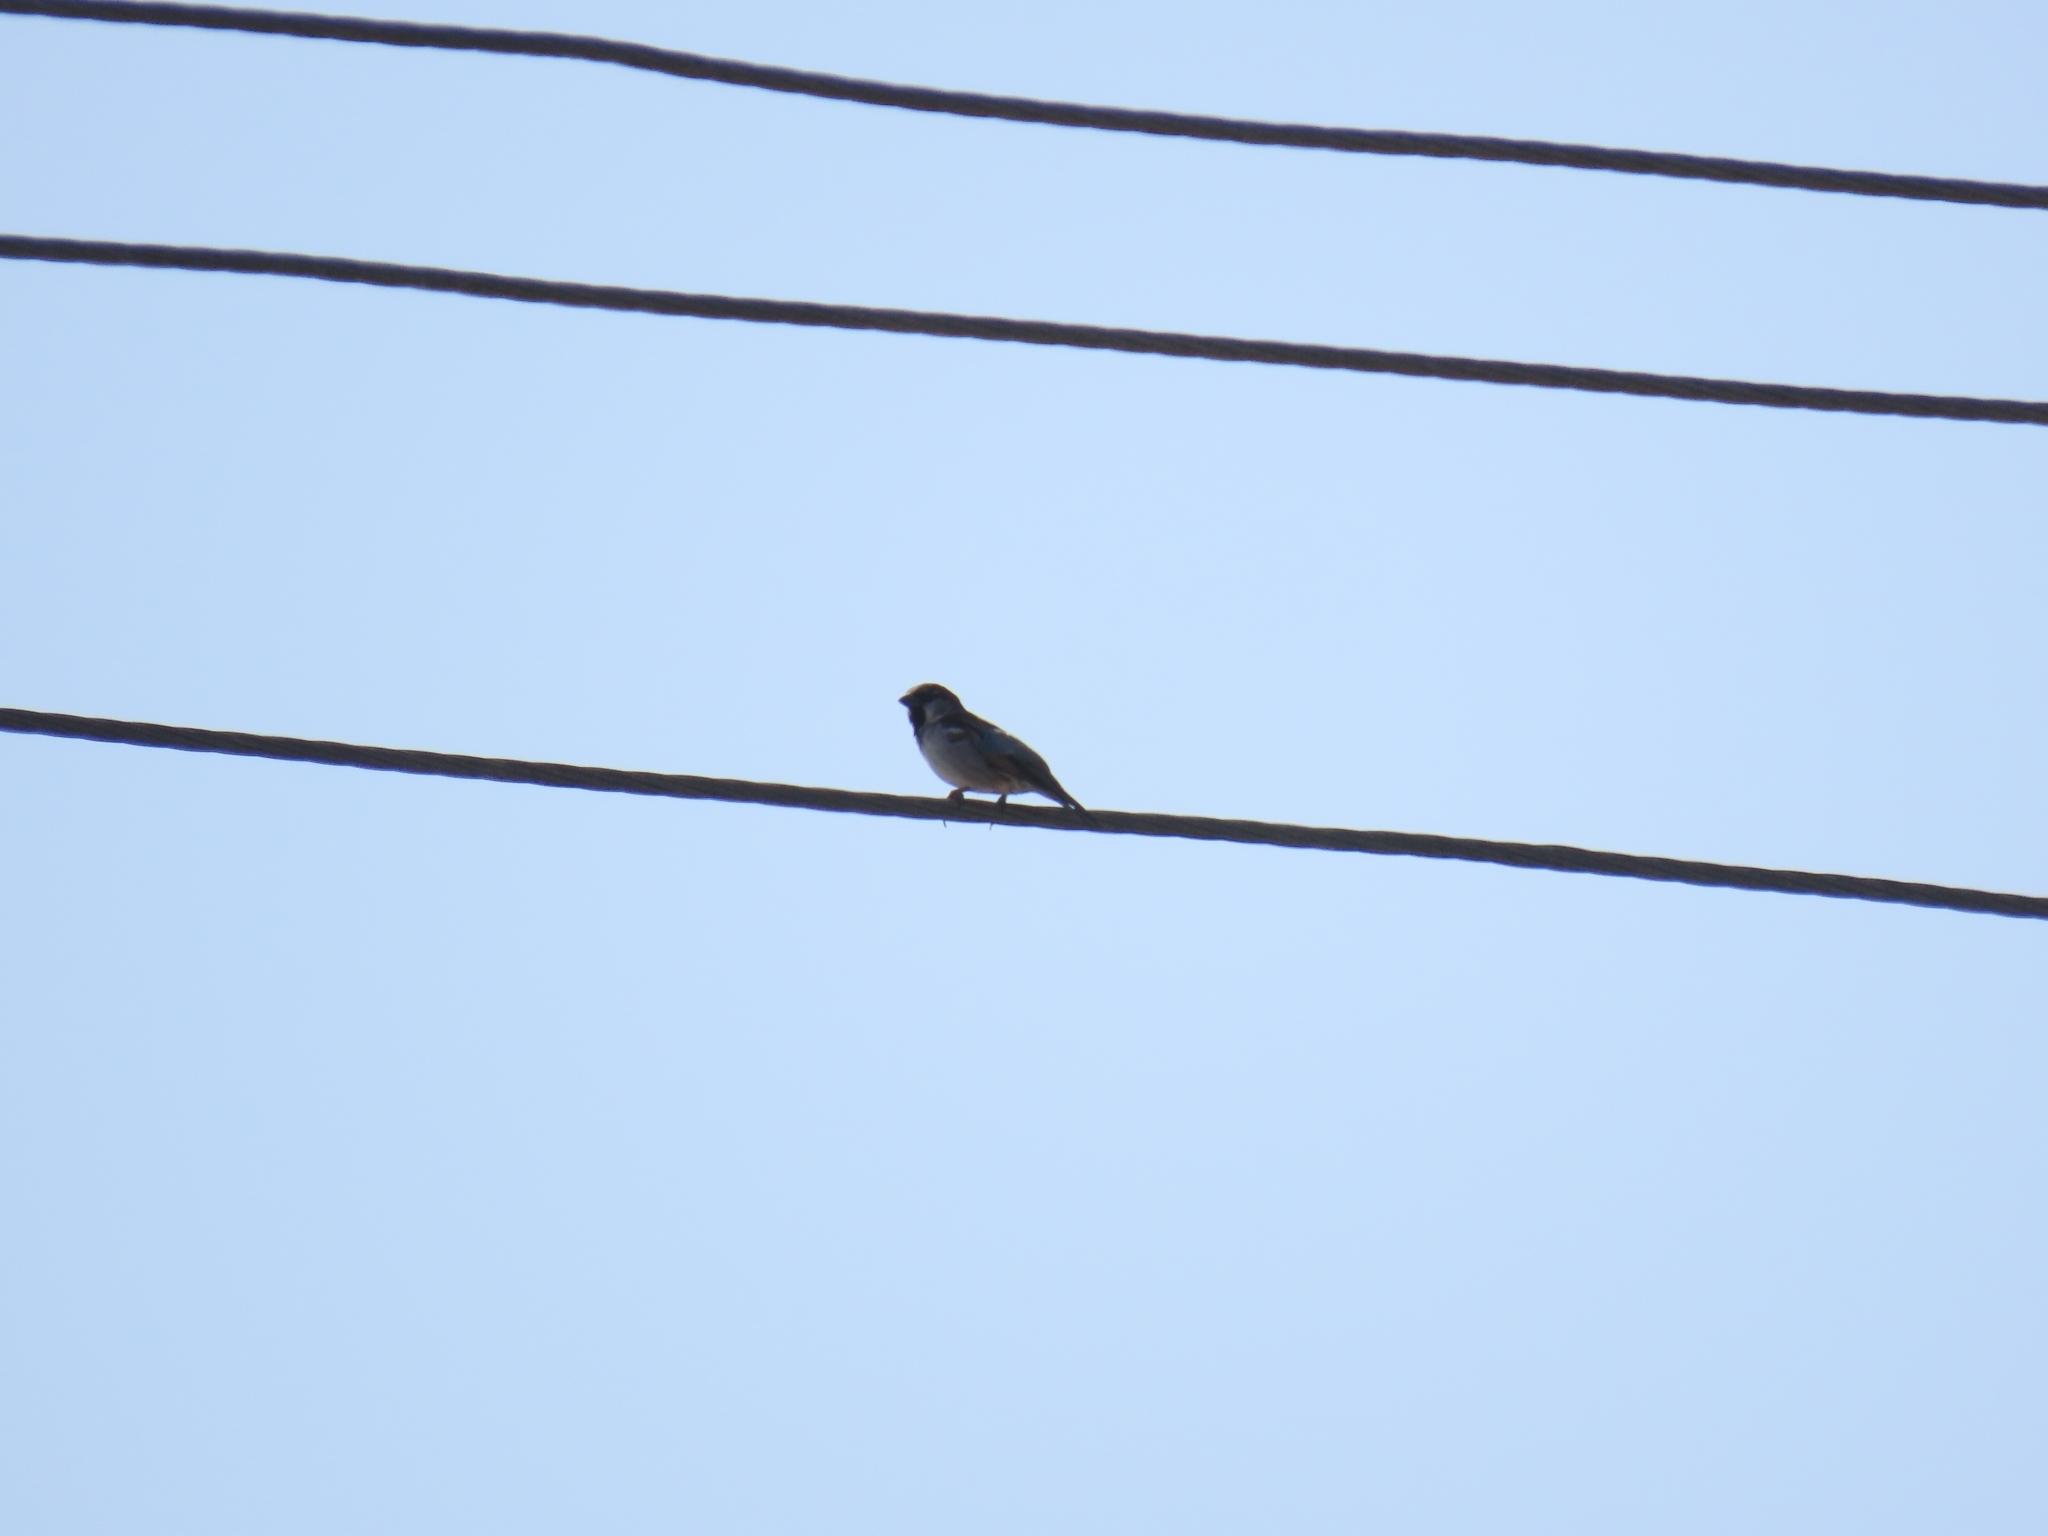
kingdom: Animalia
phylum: Chordata
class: Aves
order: Passeriformes
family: Passeridae
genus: Passer
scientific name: Passer domesticus
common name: House sparrow
